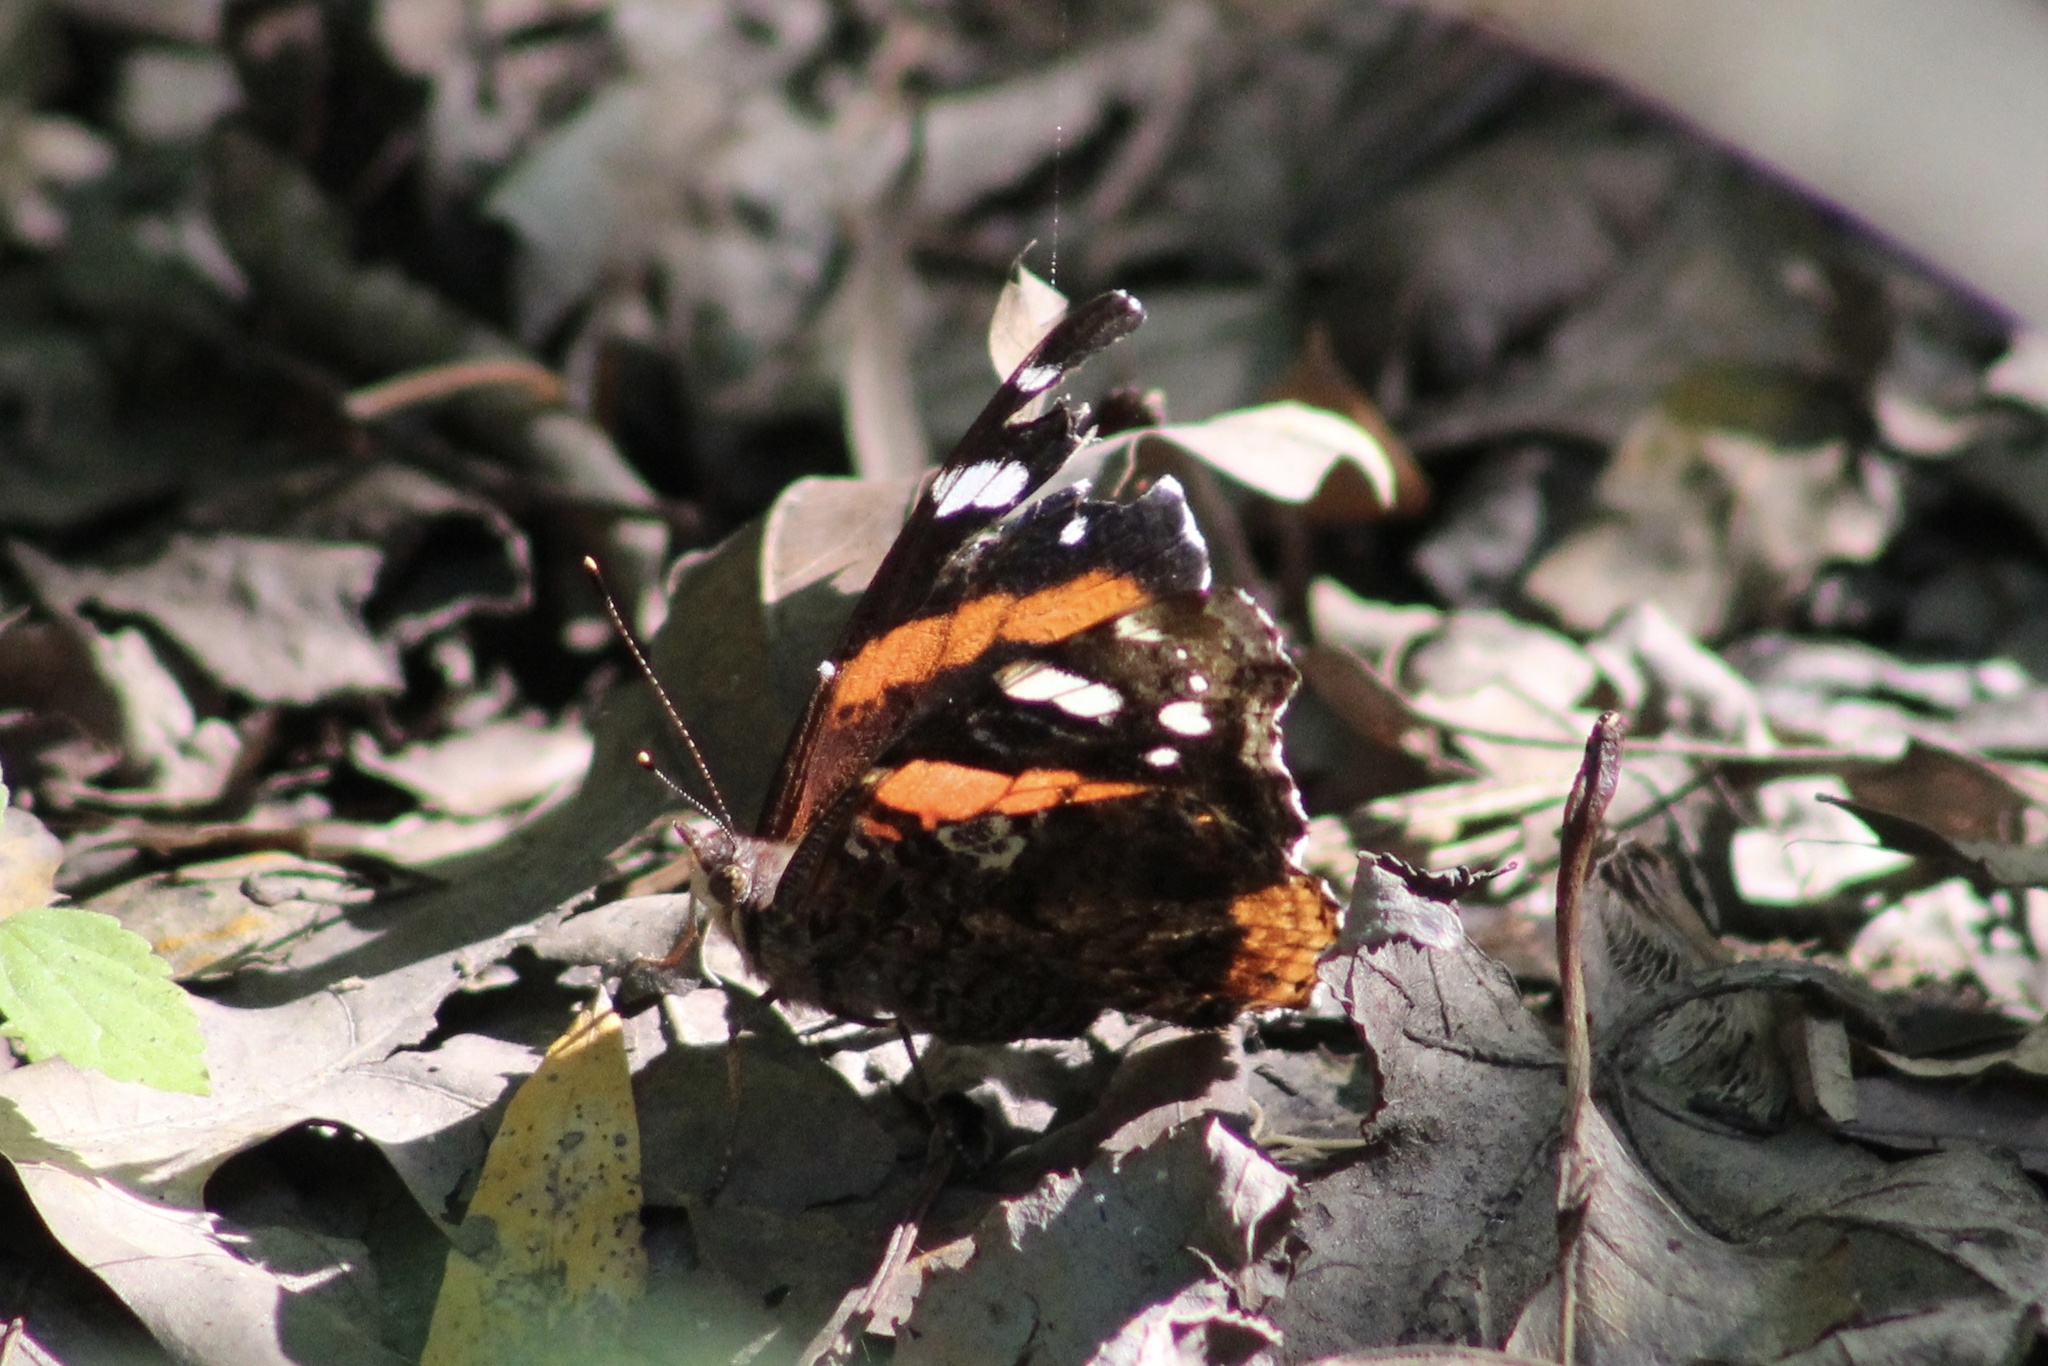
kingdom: Animalia
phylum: Arthropoda
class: Insecta
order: Lepidoptera
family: Nymphalidae
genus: Vanessa
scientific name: Vanessa atalanta
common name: Red admiral
